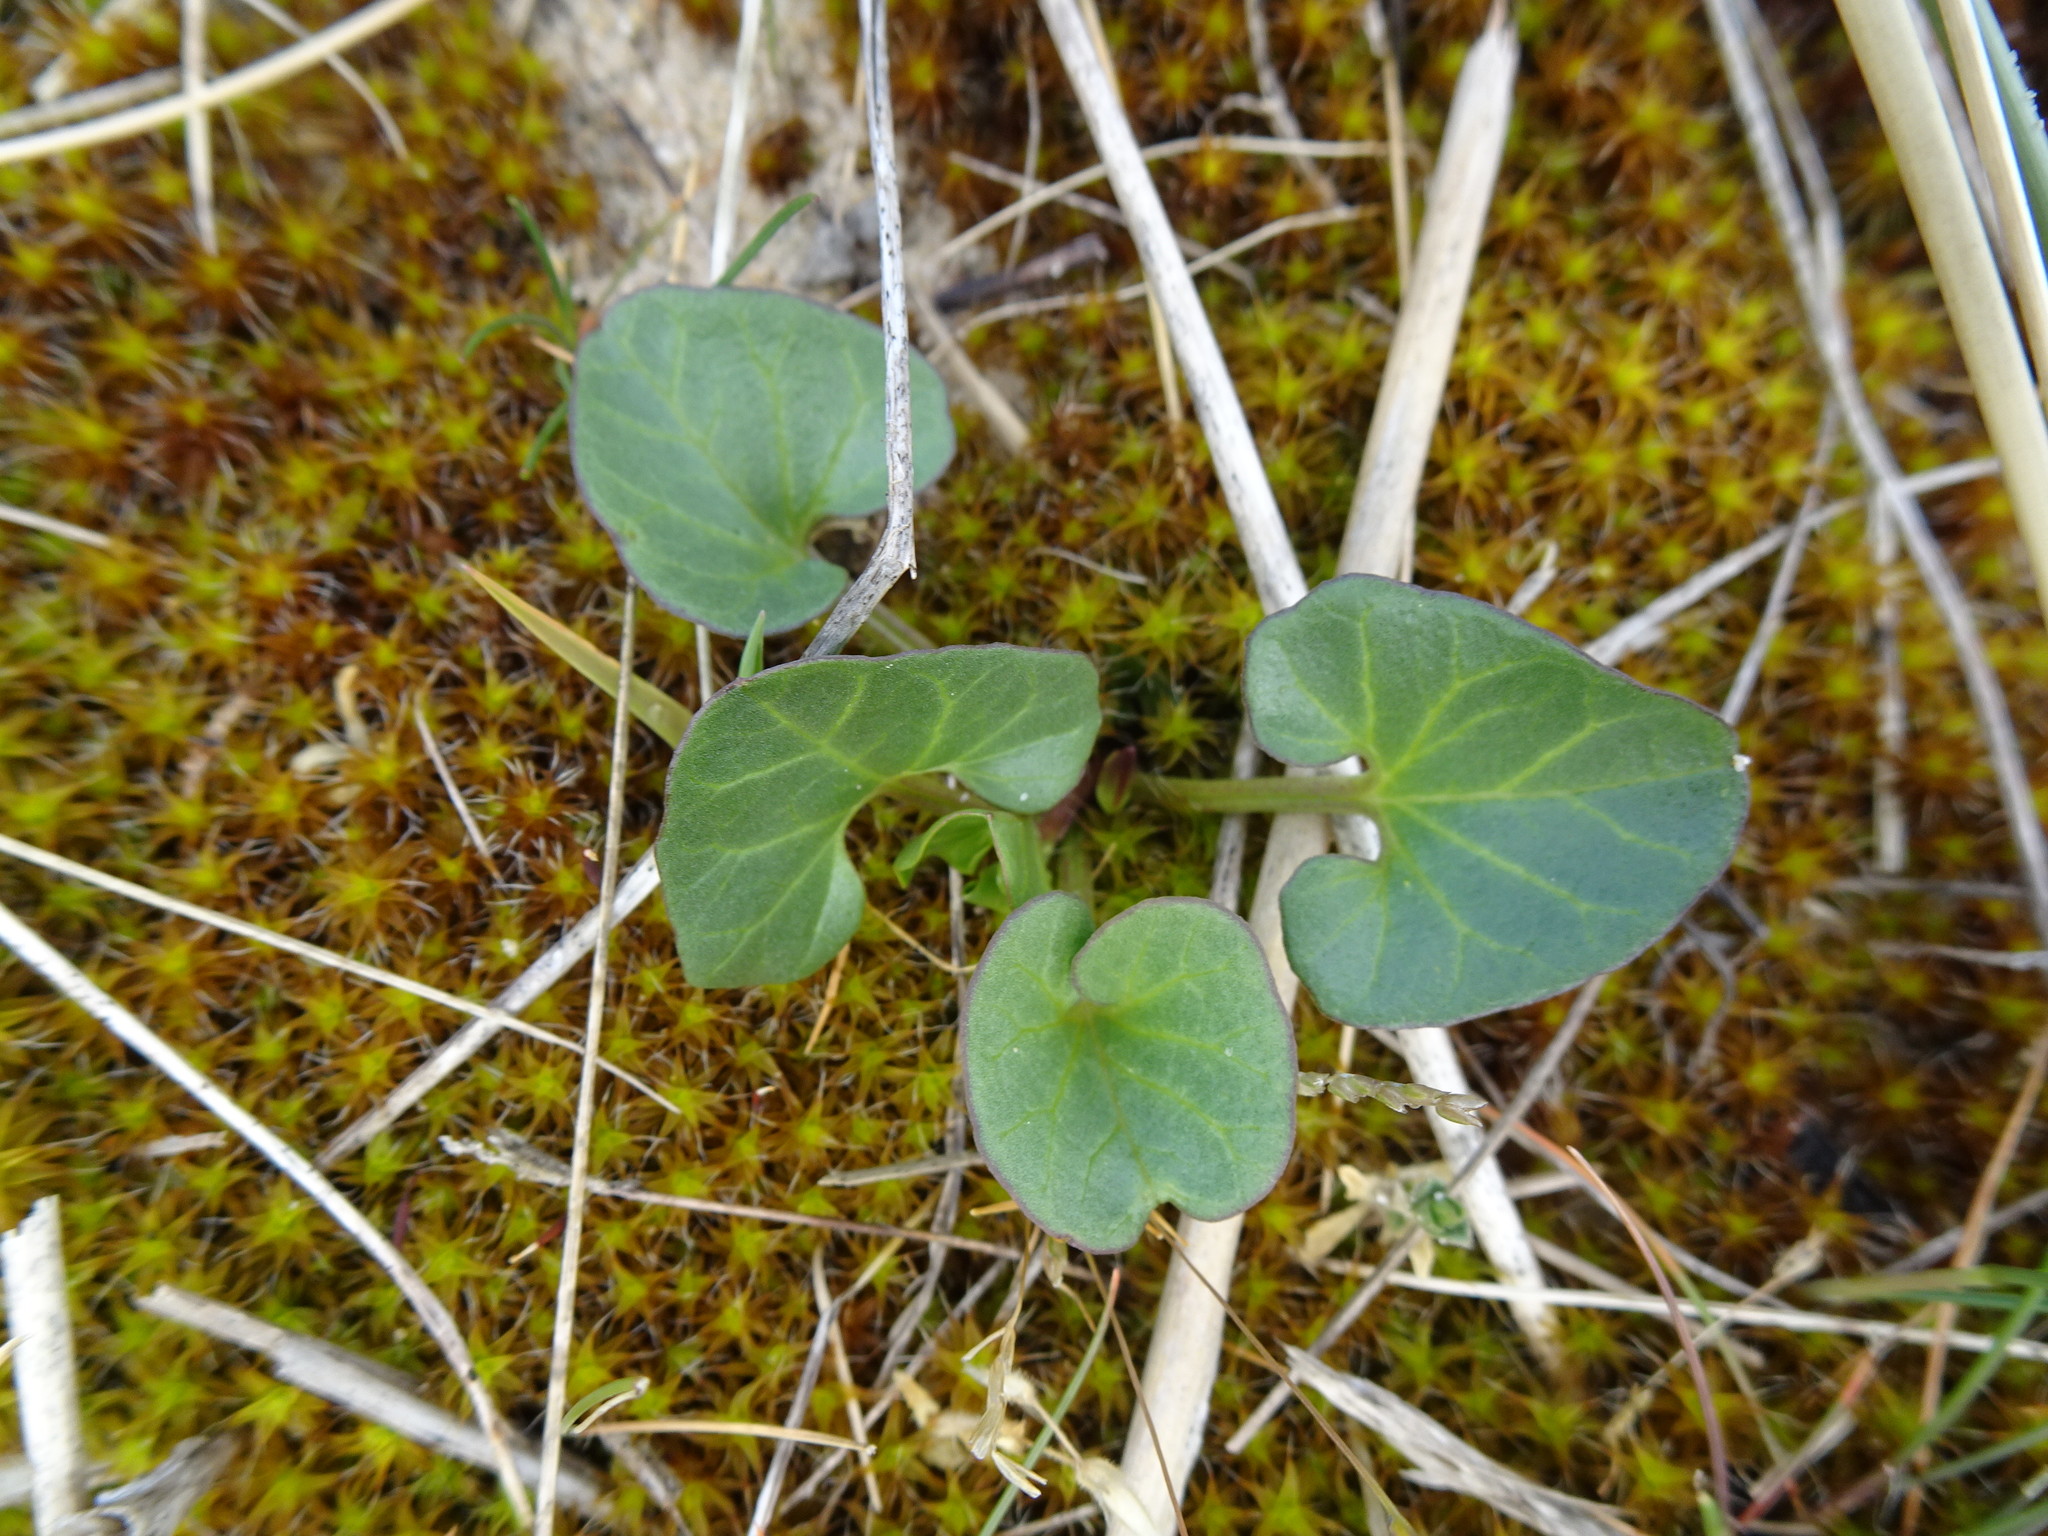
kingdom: Plantae
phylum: Tracheophyta
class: Magnoliopsida
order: Solanales
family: Convolvulaceae
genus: Calystegia
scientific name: Calystegia soldanella
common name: Sea bindweed
